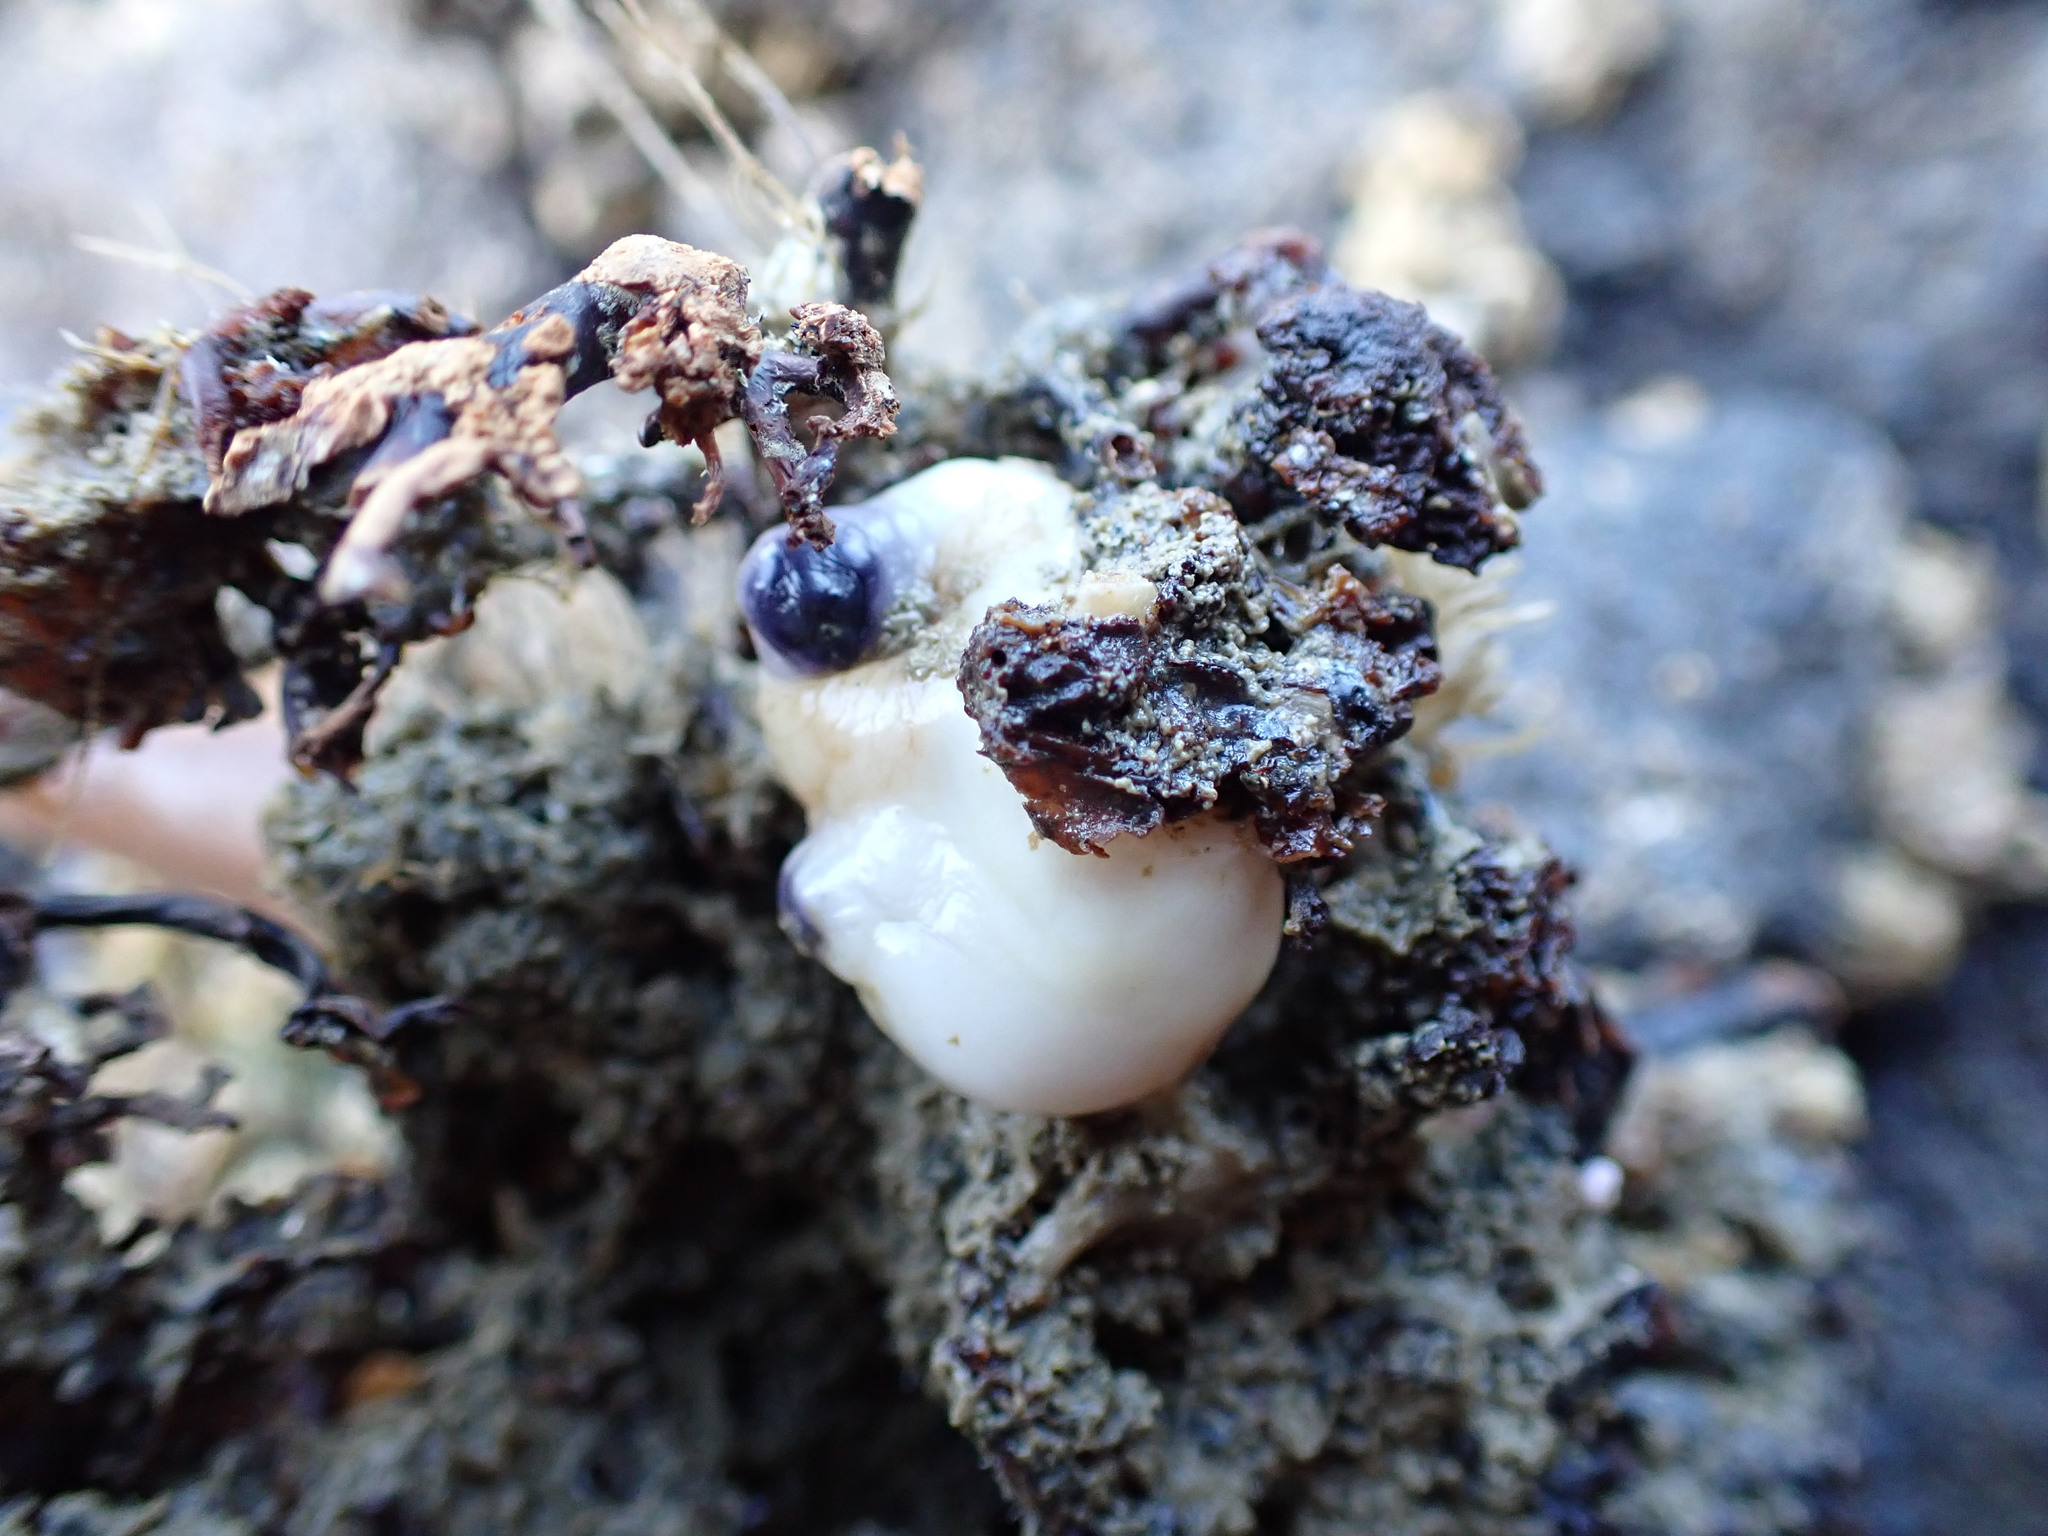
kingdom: Animalia
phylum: Chordata
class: Ascidiacea
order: Stolidobranchia
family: Styelidae
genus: Asterocarpa
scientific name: Asterocarpa coerulea
